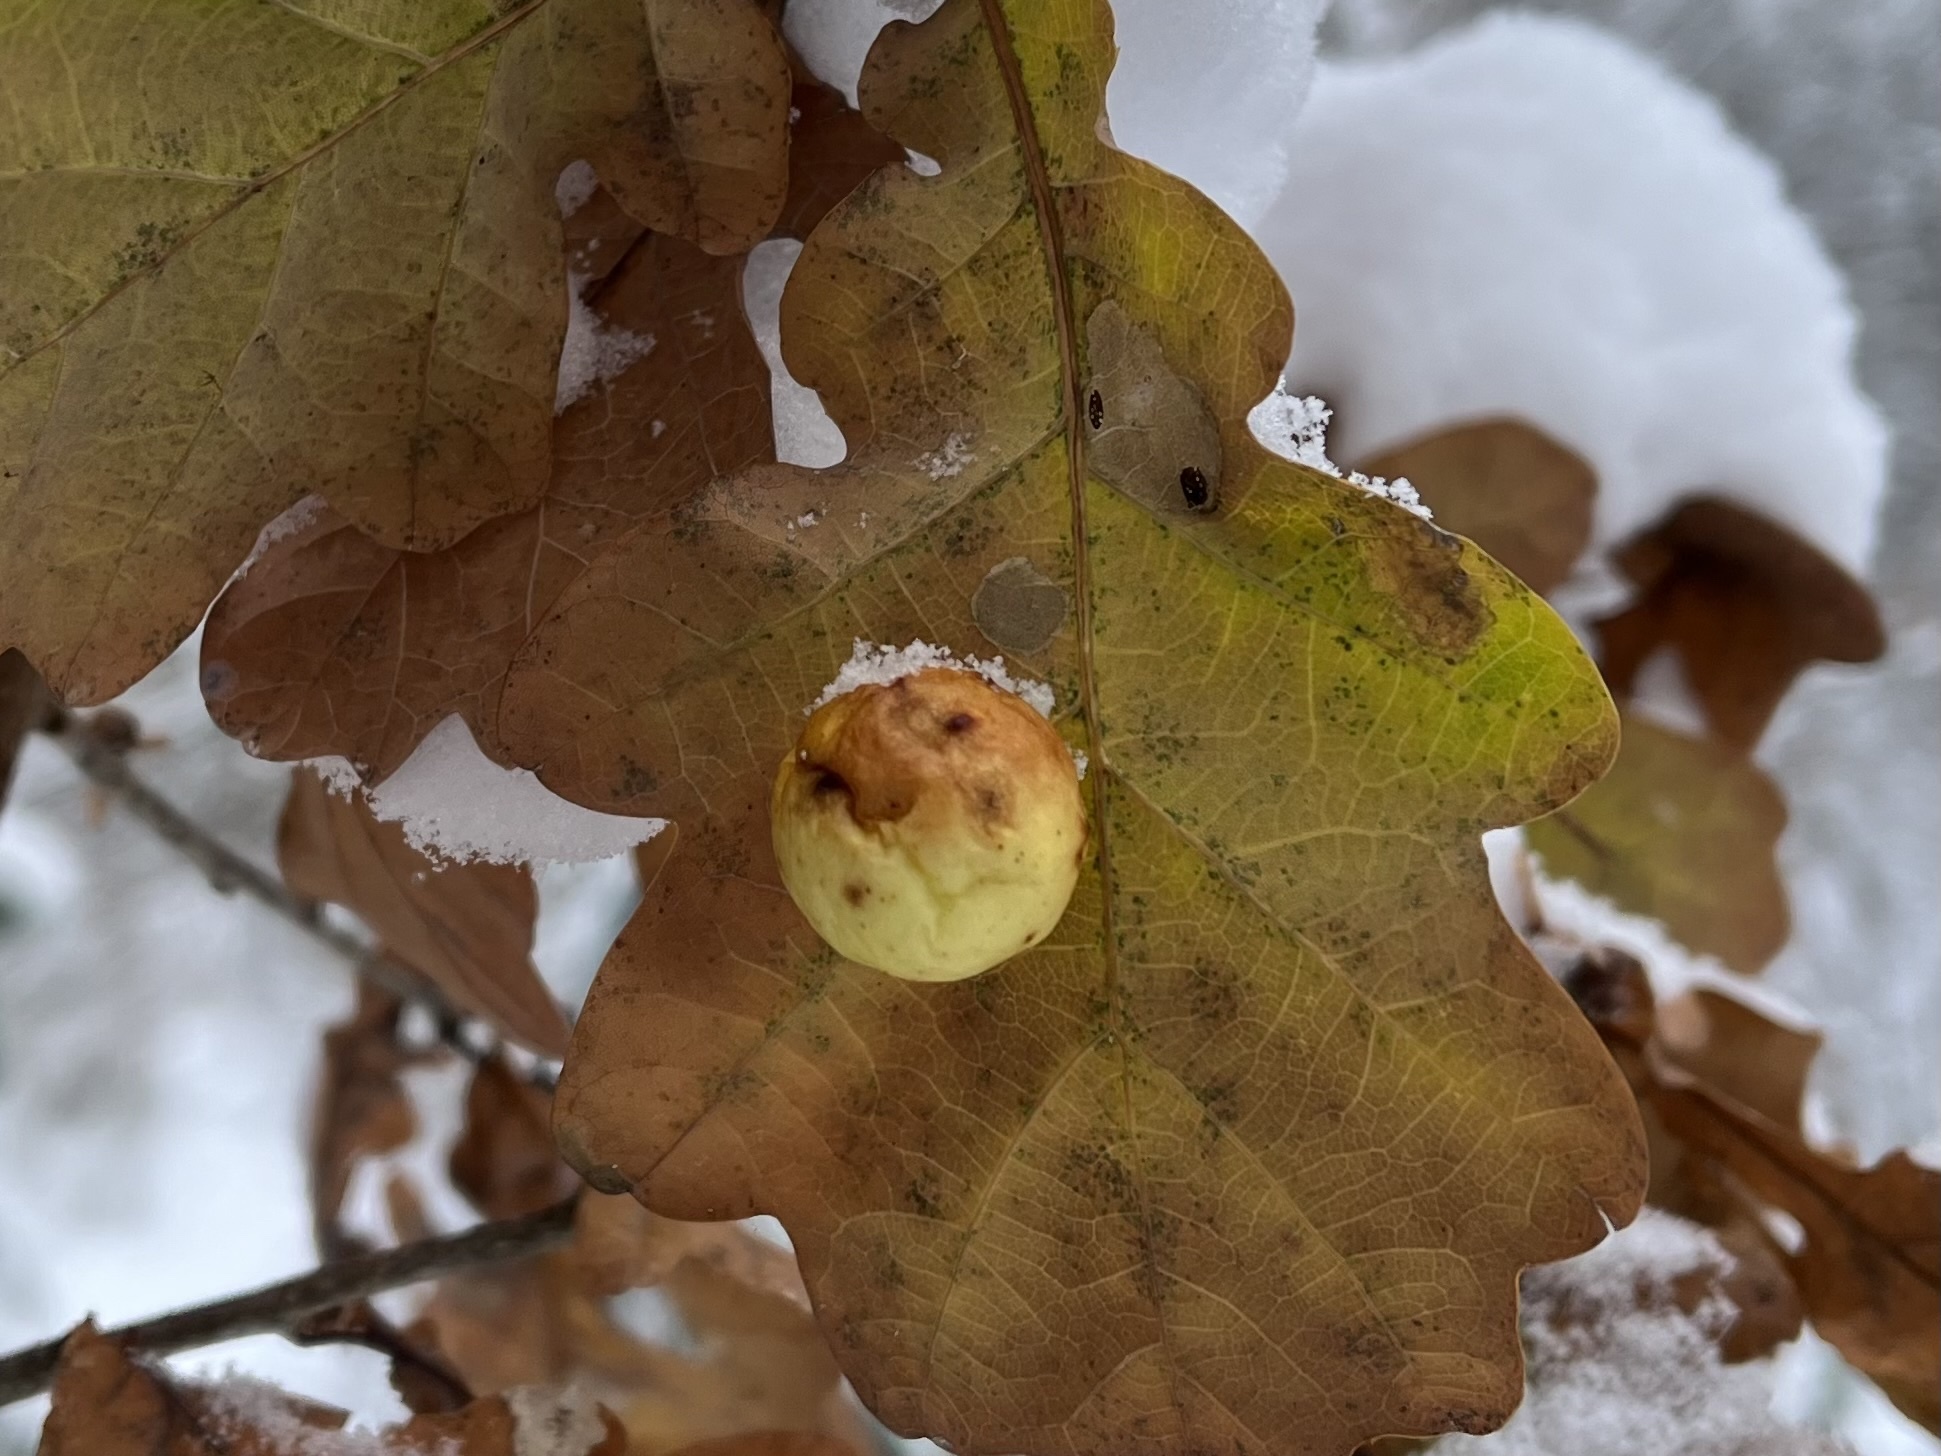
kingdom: Animalia
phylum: Arthropoda
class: Insecta
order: Hymenoptera
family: Cynipidae
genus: Cynips
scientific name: Cynips quercusfolii
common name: Cherry gall
